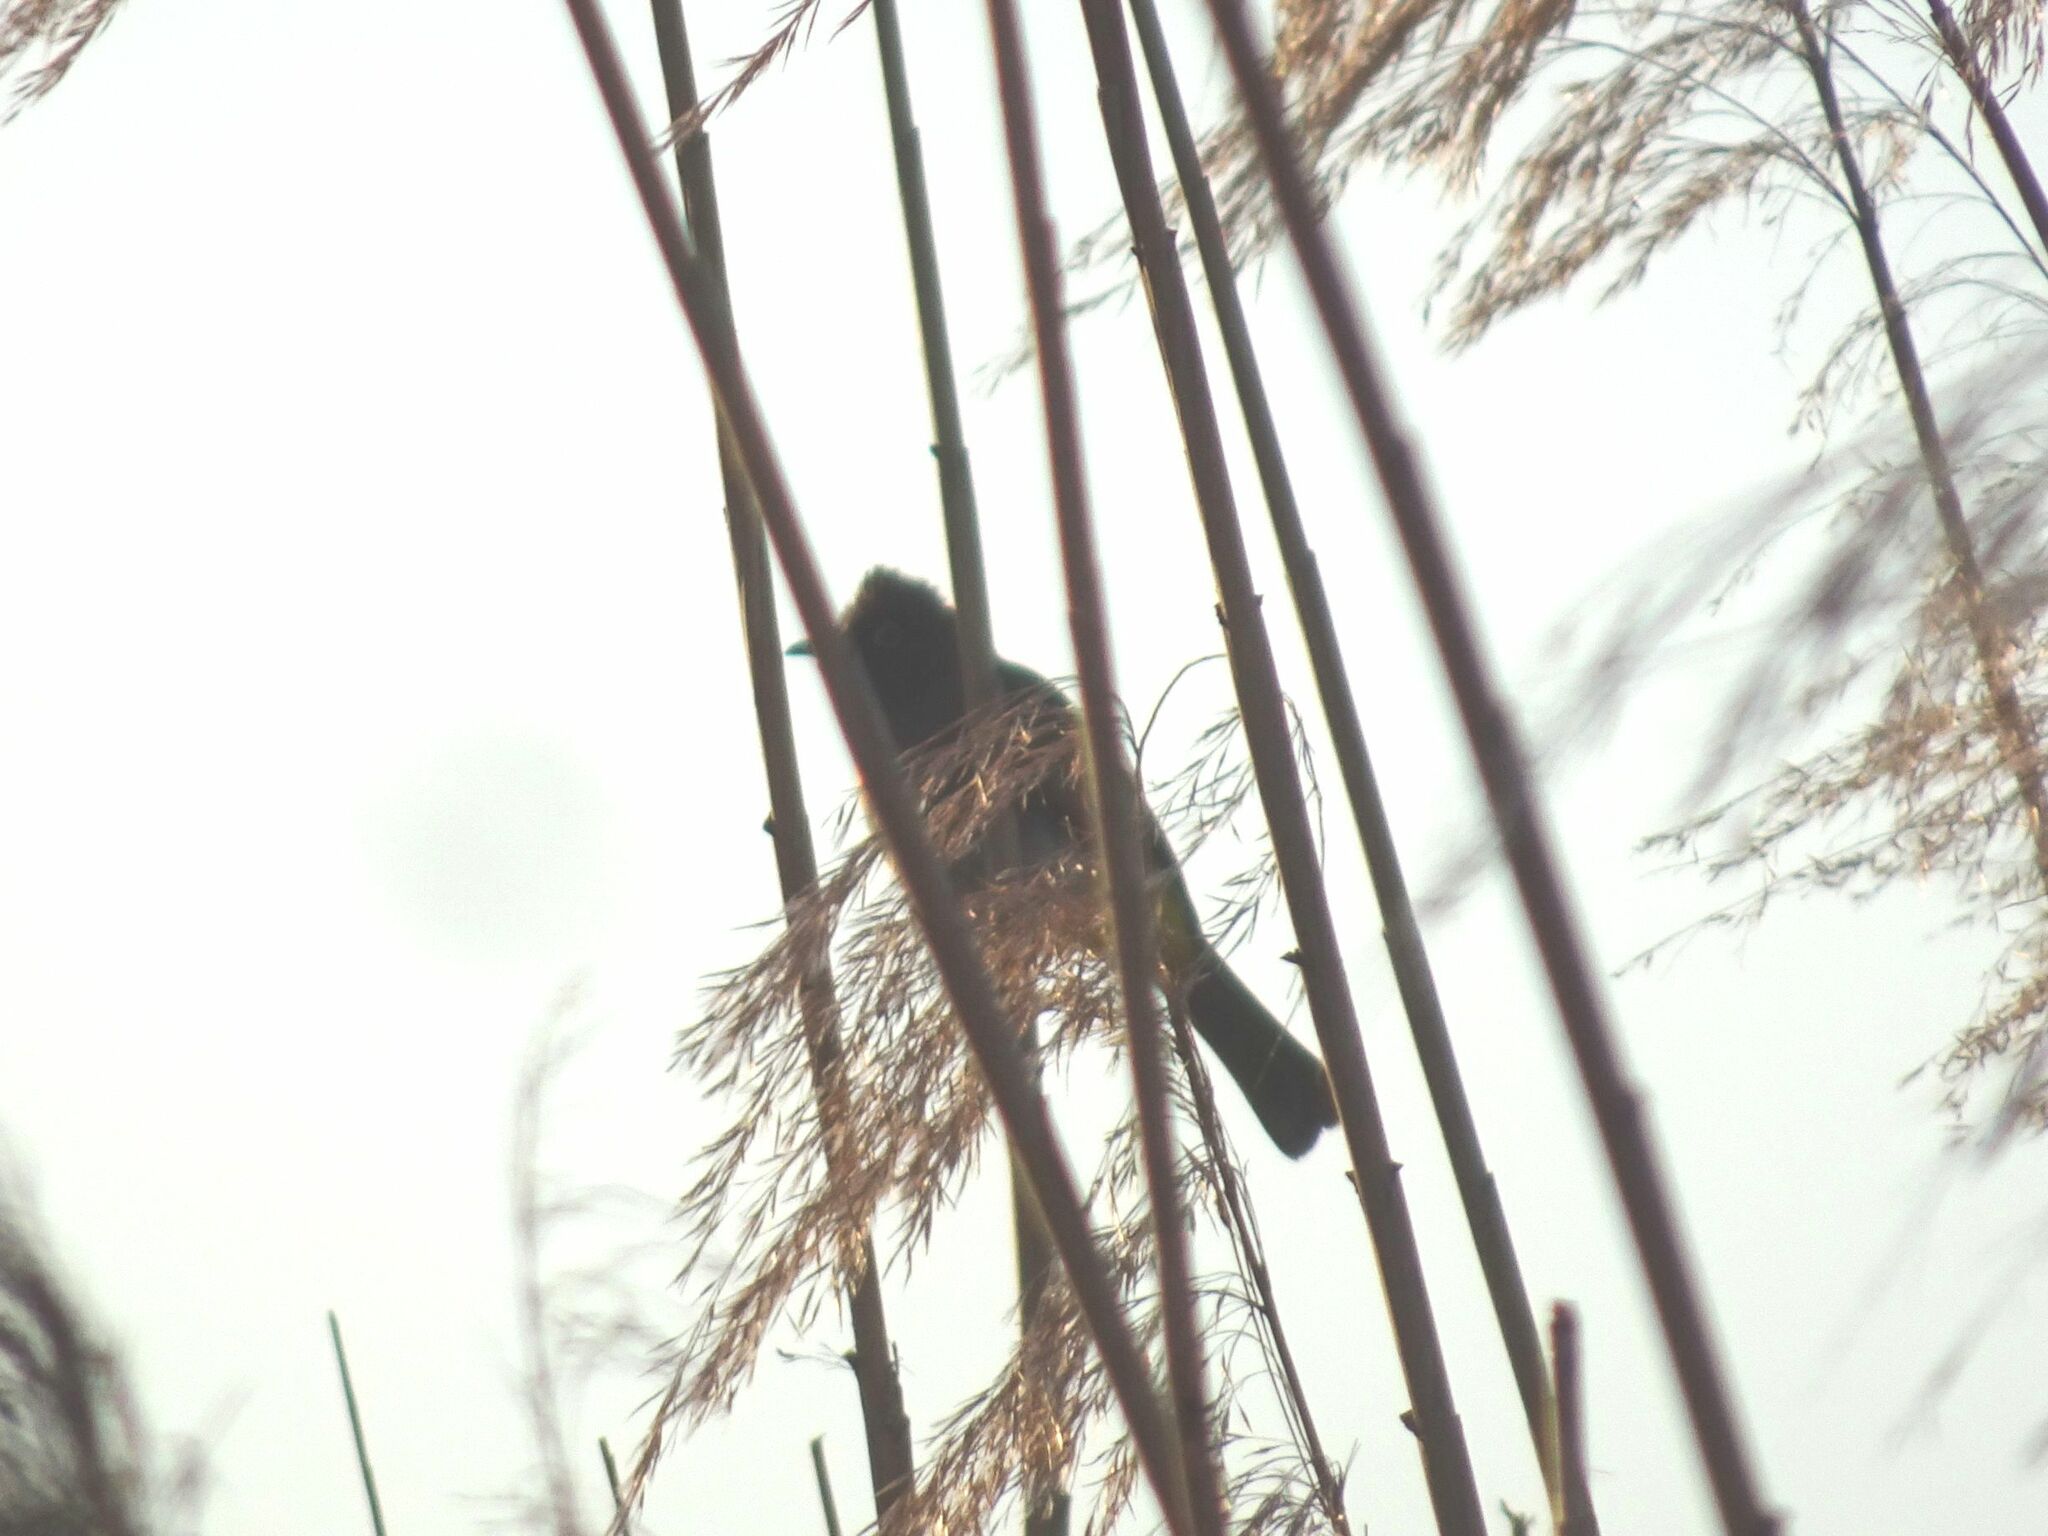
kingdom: Animalia
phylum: Chordata
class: Aves
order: Passeriformes
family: Pycnonotidae
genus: Pycnonotus
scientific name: Pycnonotus capensis
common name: Cape bulbul
